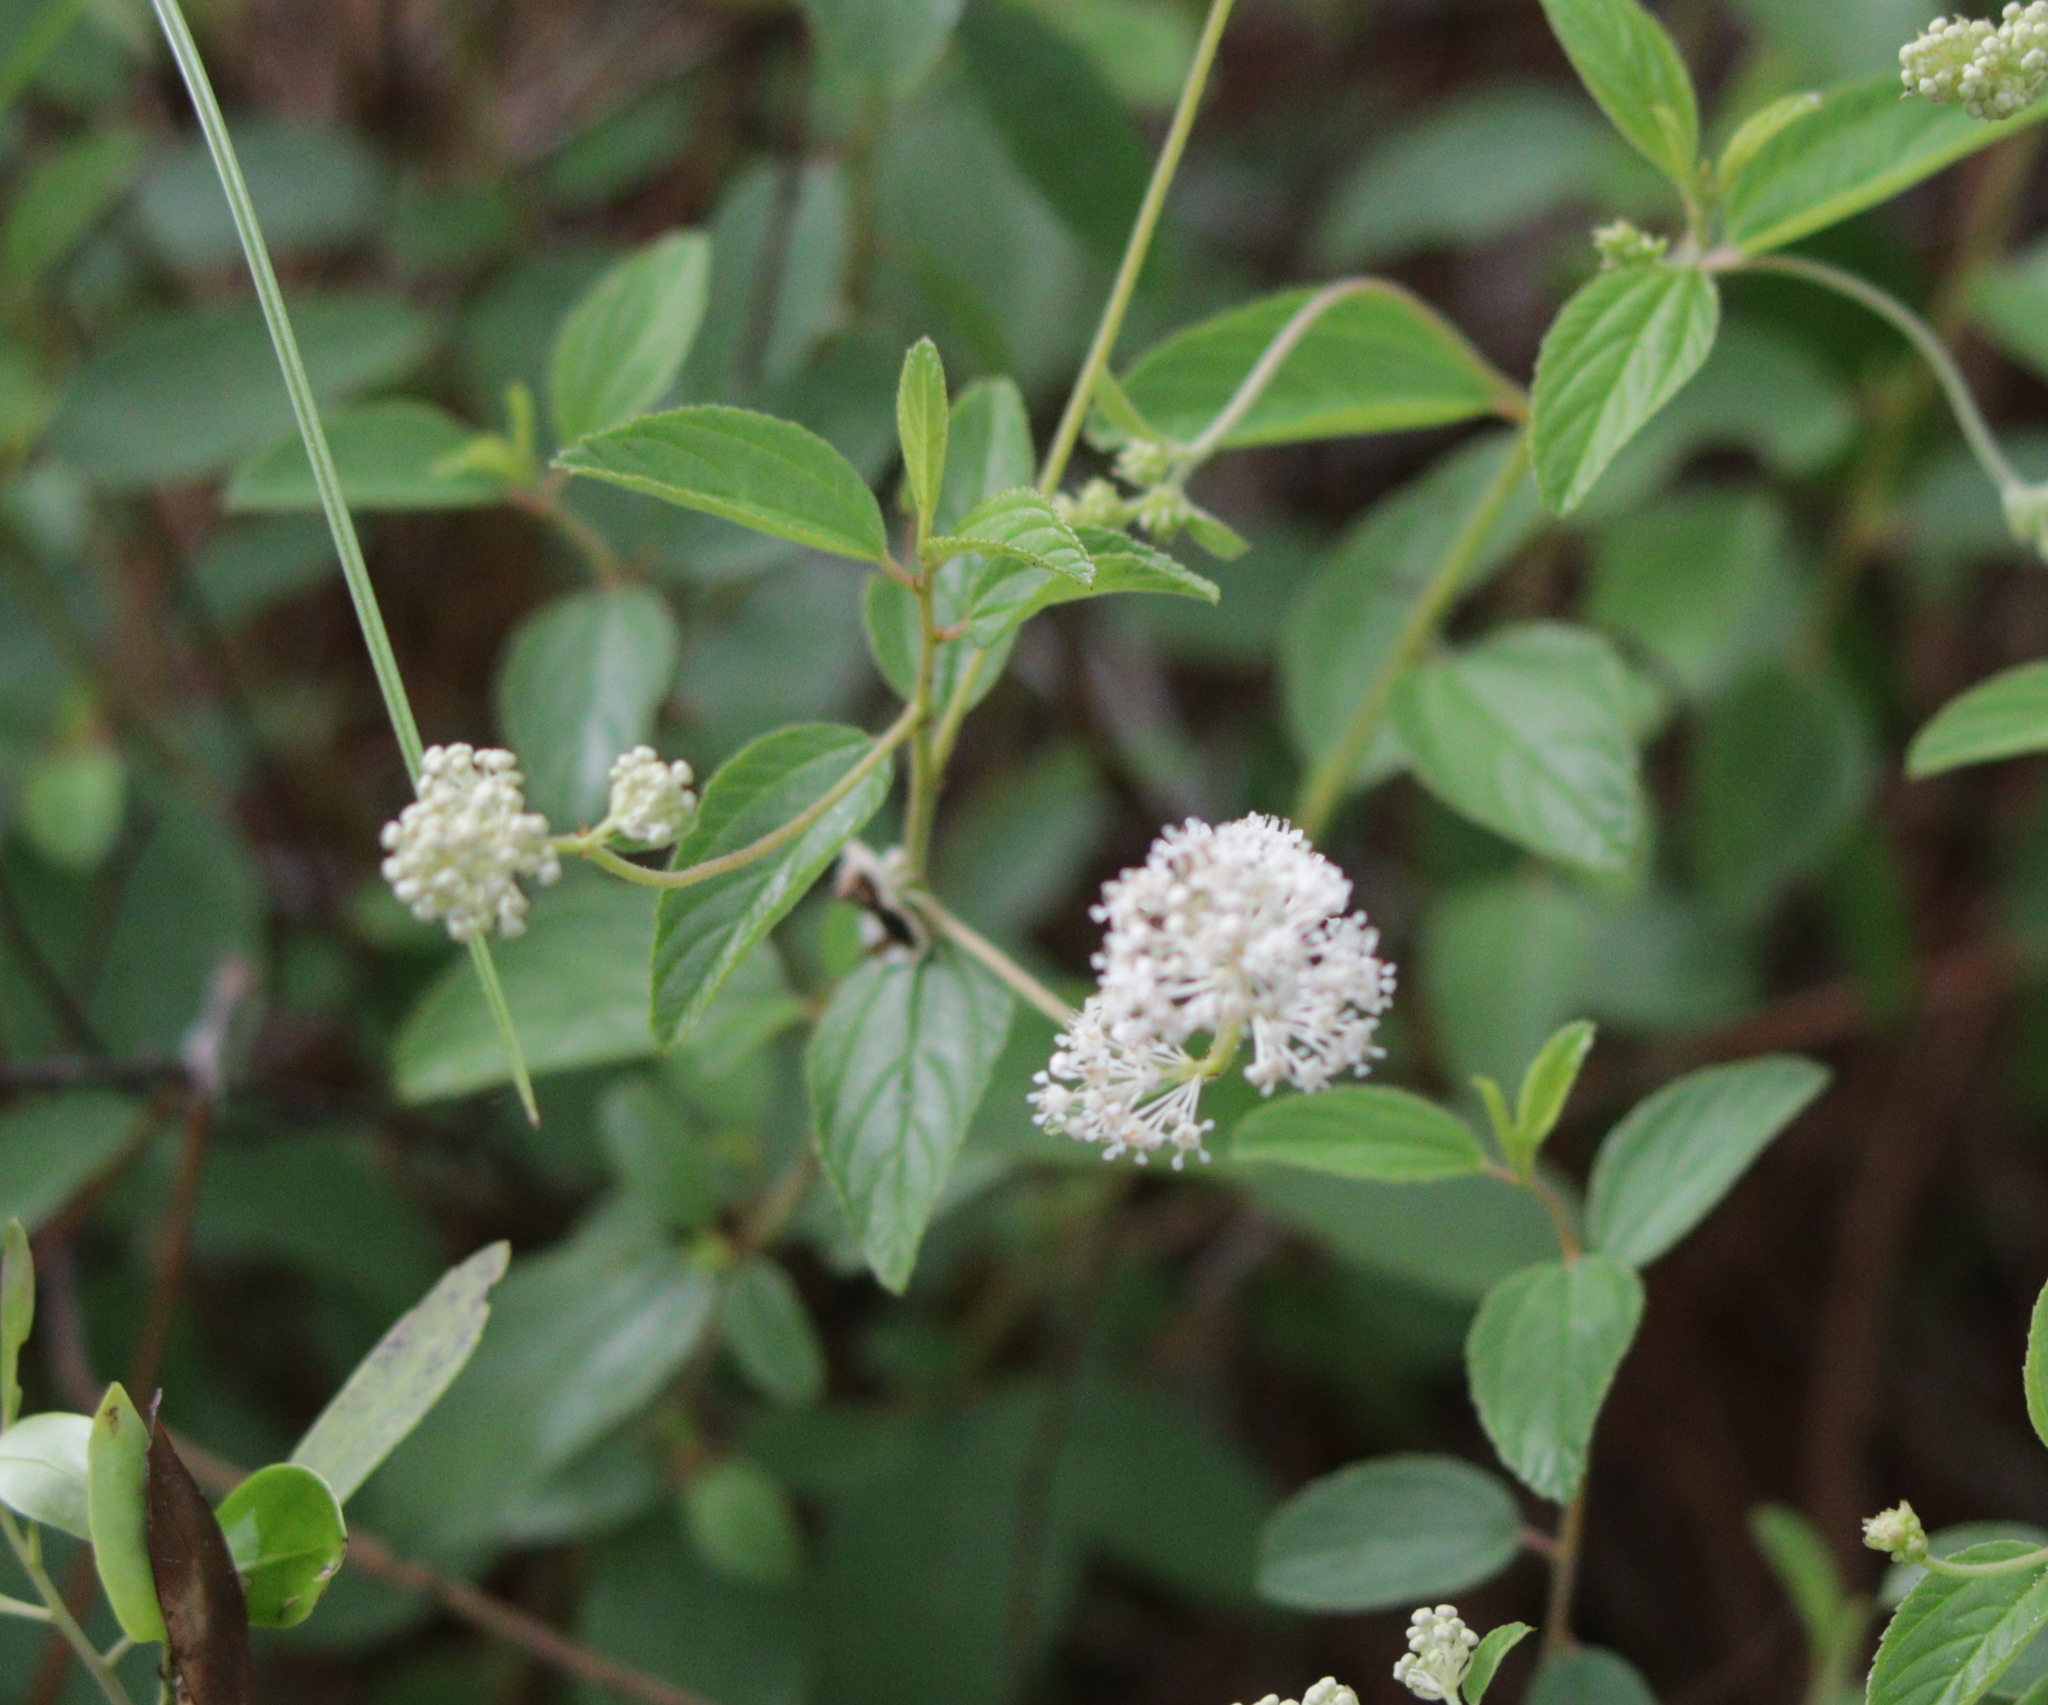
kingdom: Plantae
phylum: Tracheophyta
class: Magnoliopsida
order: Rosales
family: Rhamnaceae
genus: Ceanothus
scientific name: Ceanothus americanus
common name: Redroot
